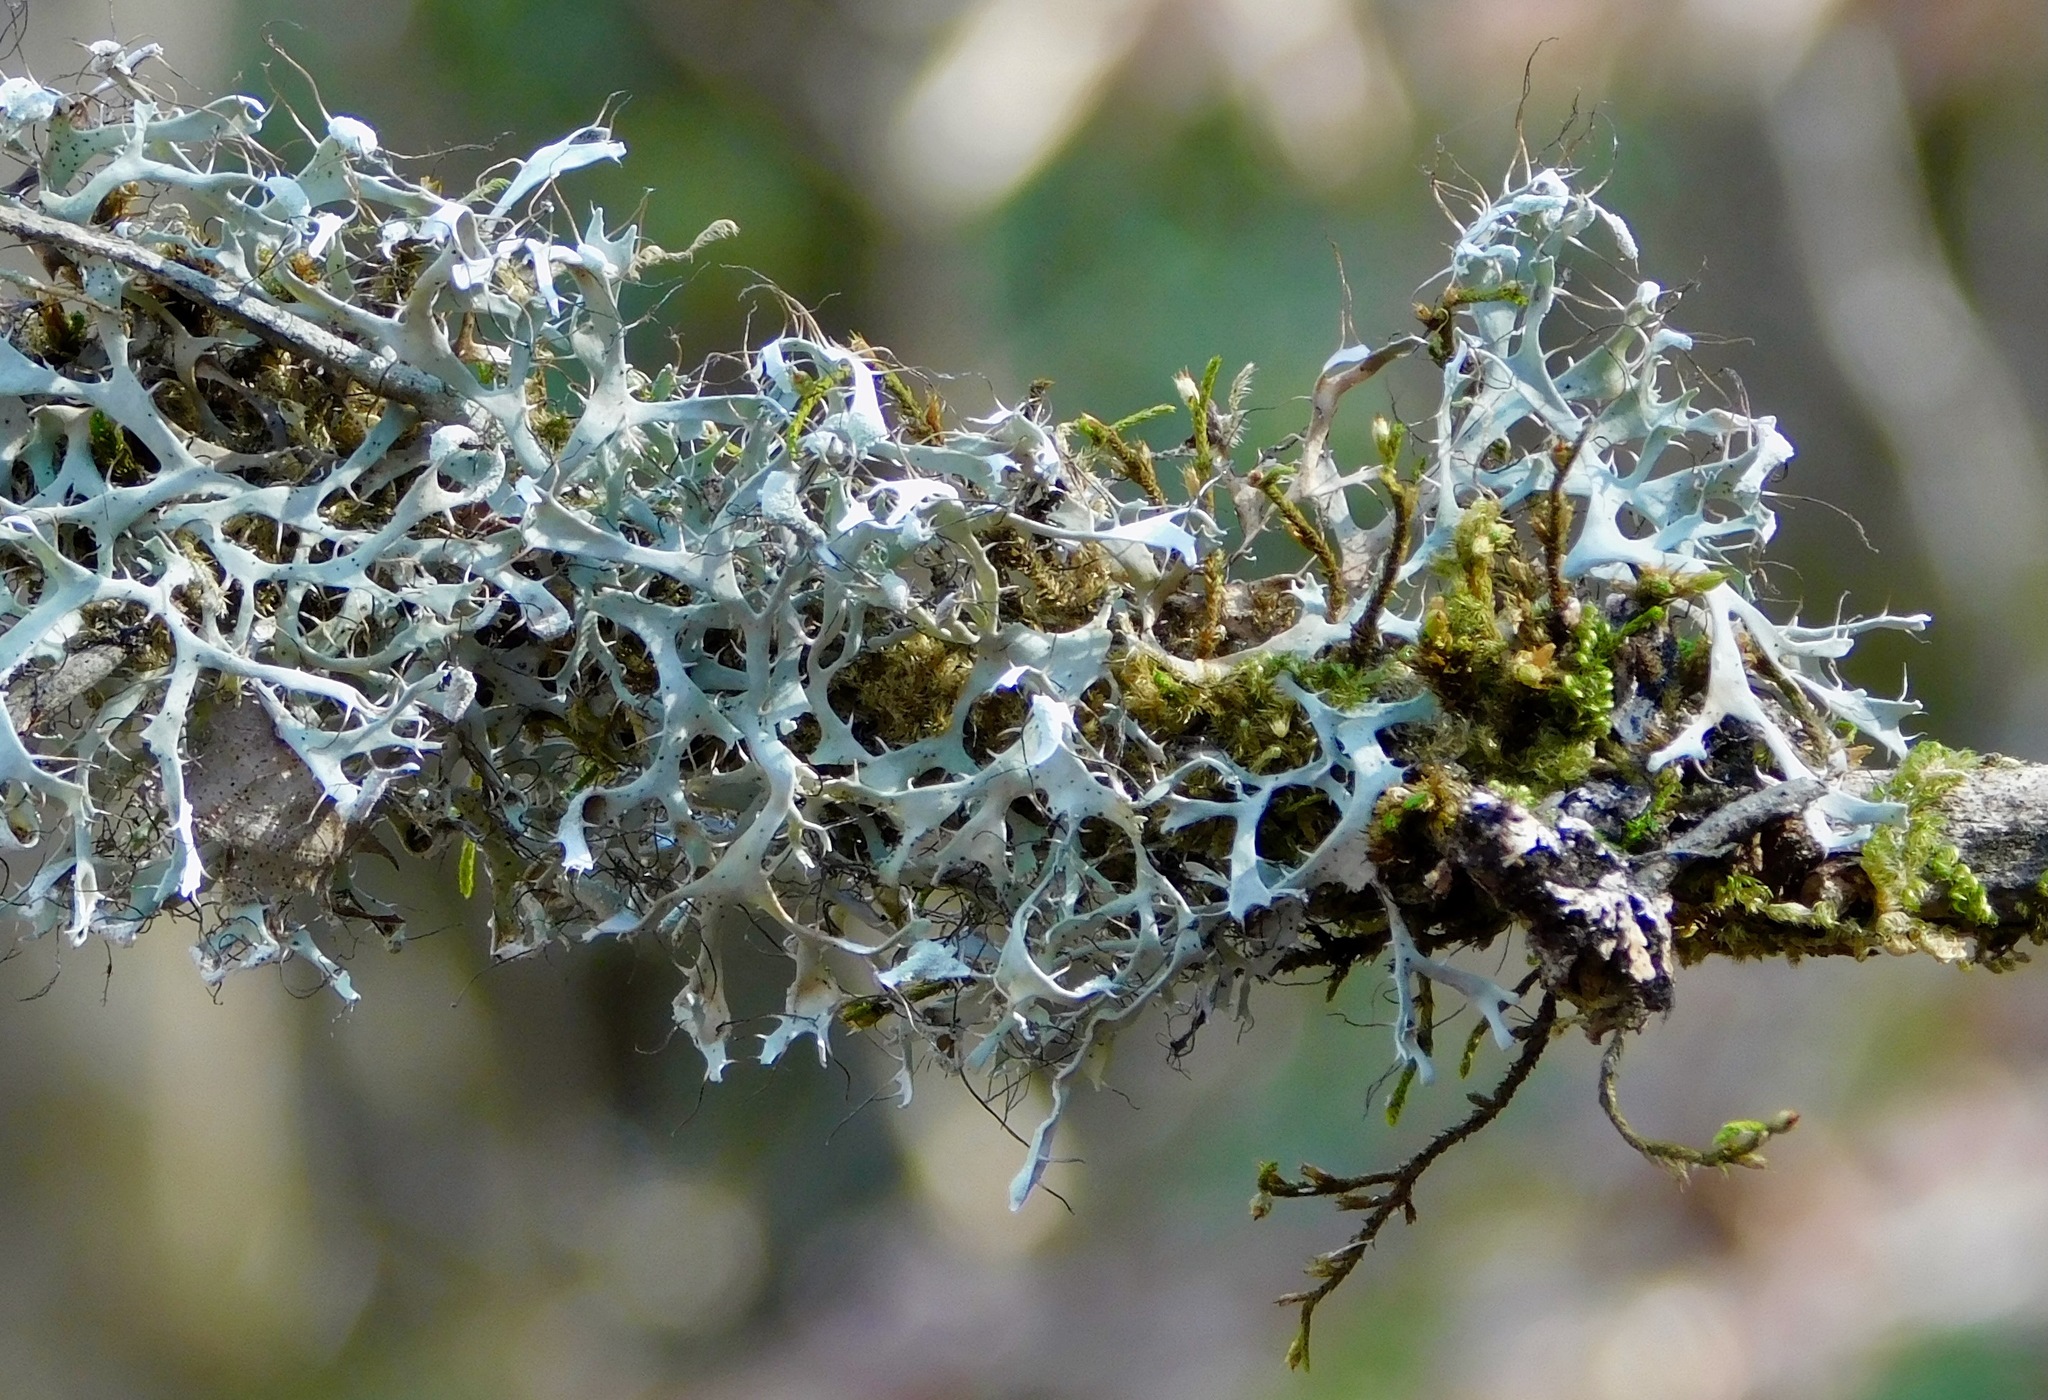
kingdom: Fungi
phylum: Ascomycota
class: Lecanoromycetes
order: Caliciales
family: Physciaceae
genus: Leucodermia
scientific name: Leucodermia appalachensis
